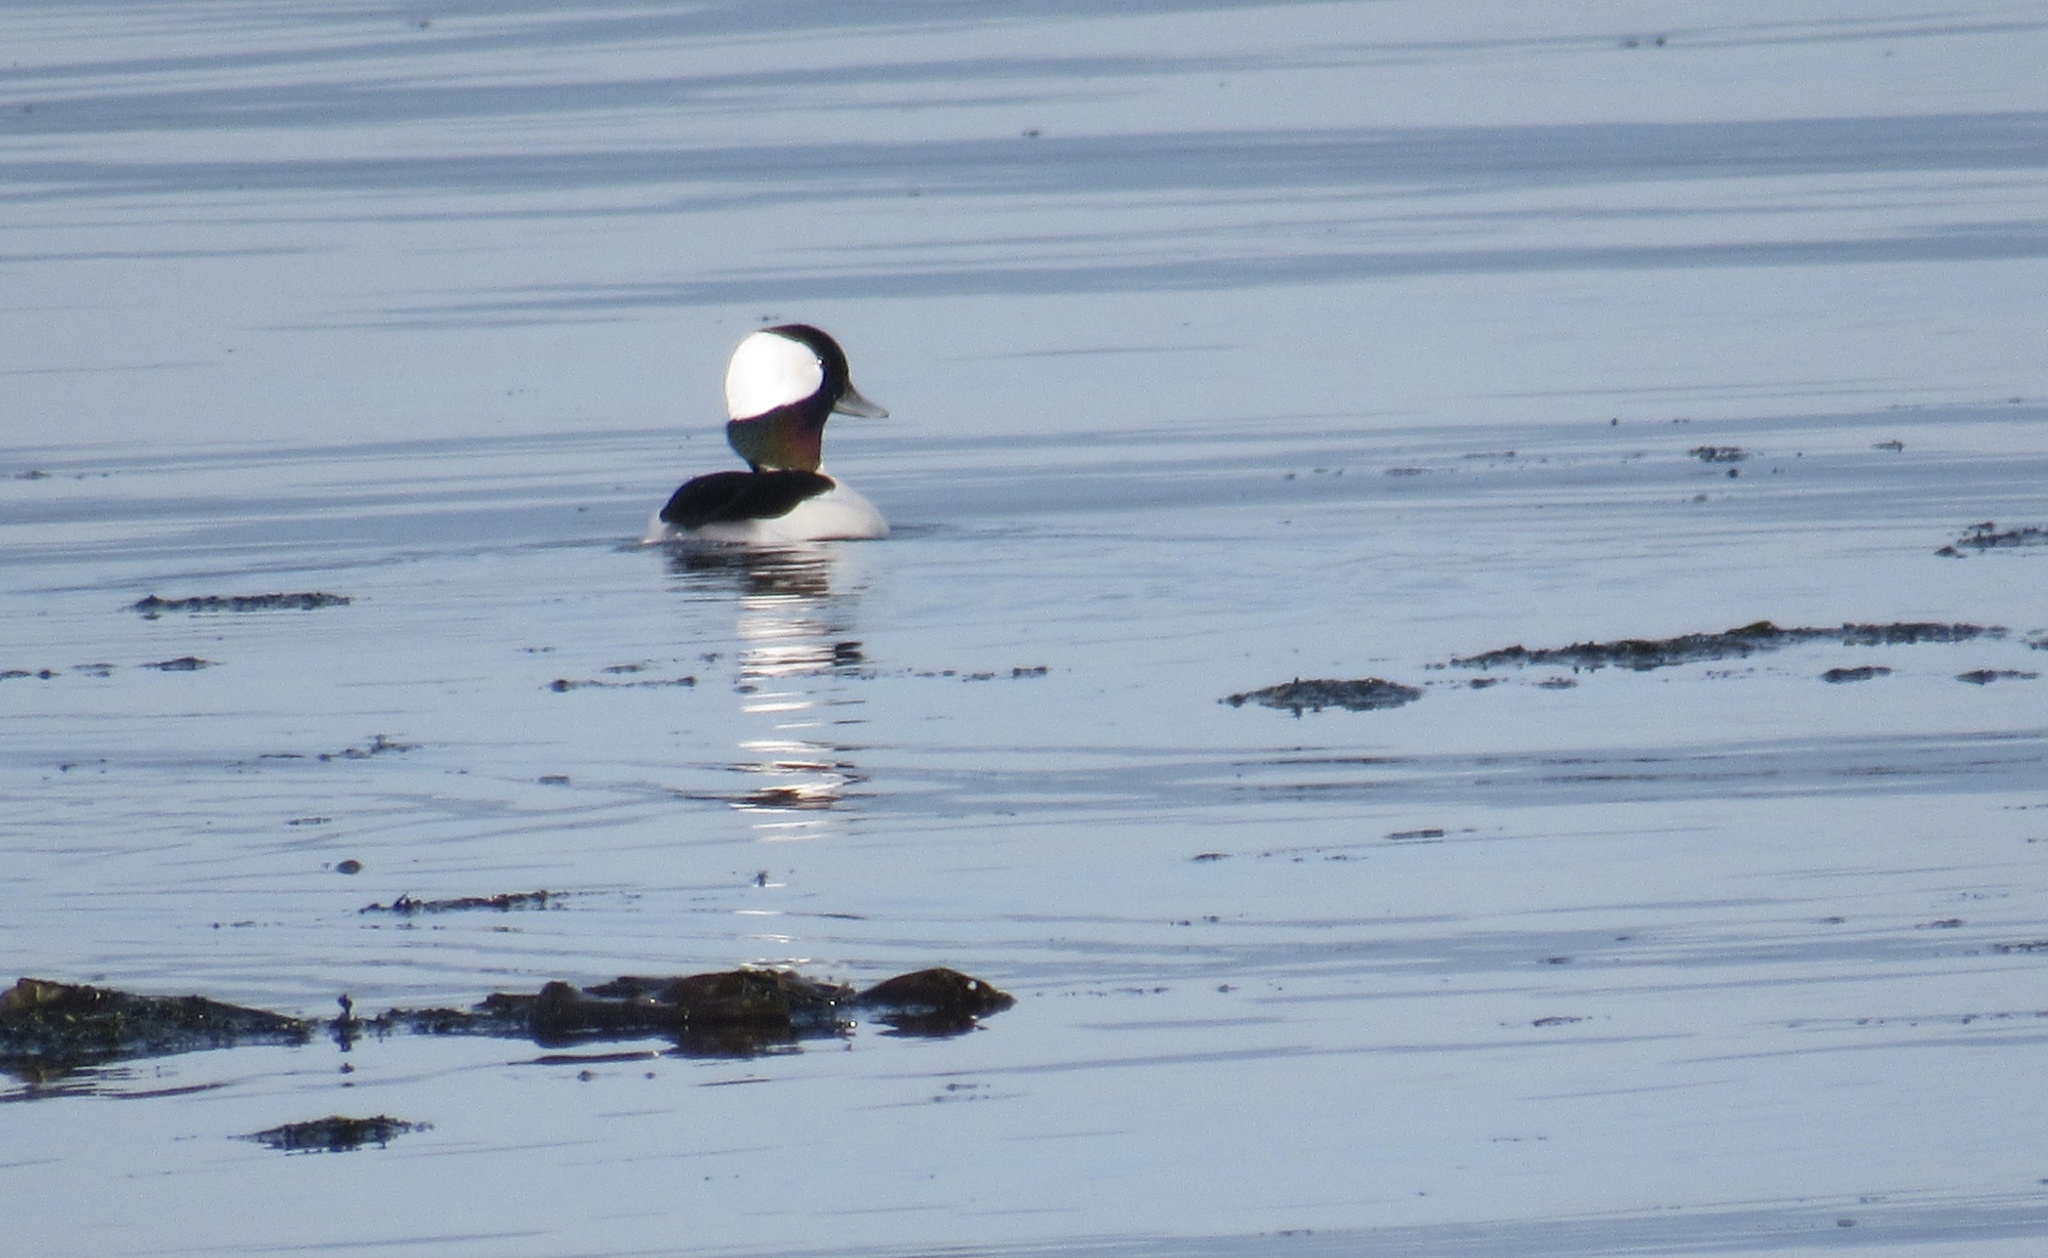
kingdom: Animalia
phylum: Chordata
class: Aves
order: Anseriformes
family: Anatidae
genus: Bucephala
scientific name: Bucephala albeola
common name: Bufflehead
